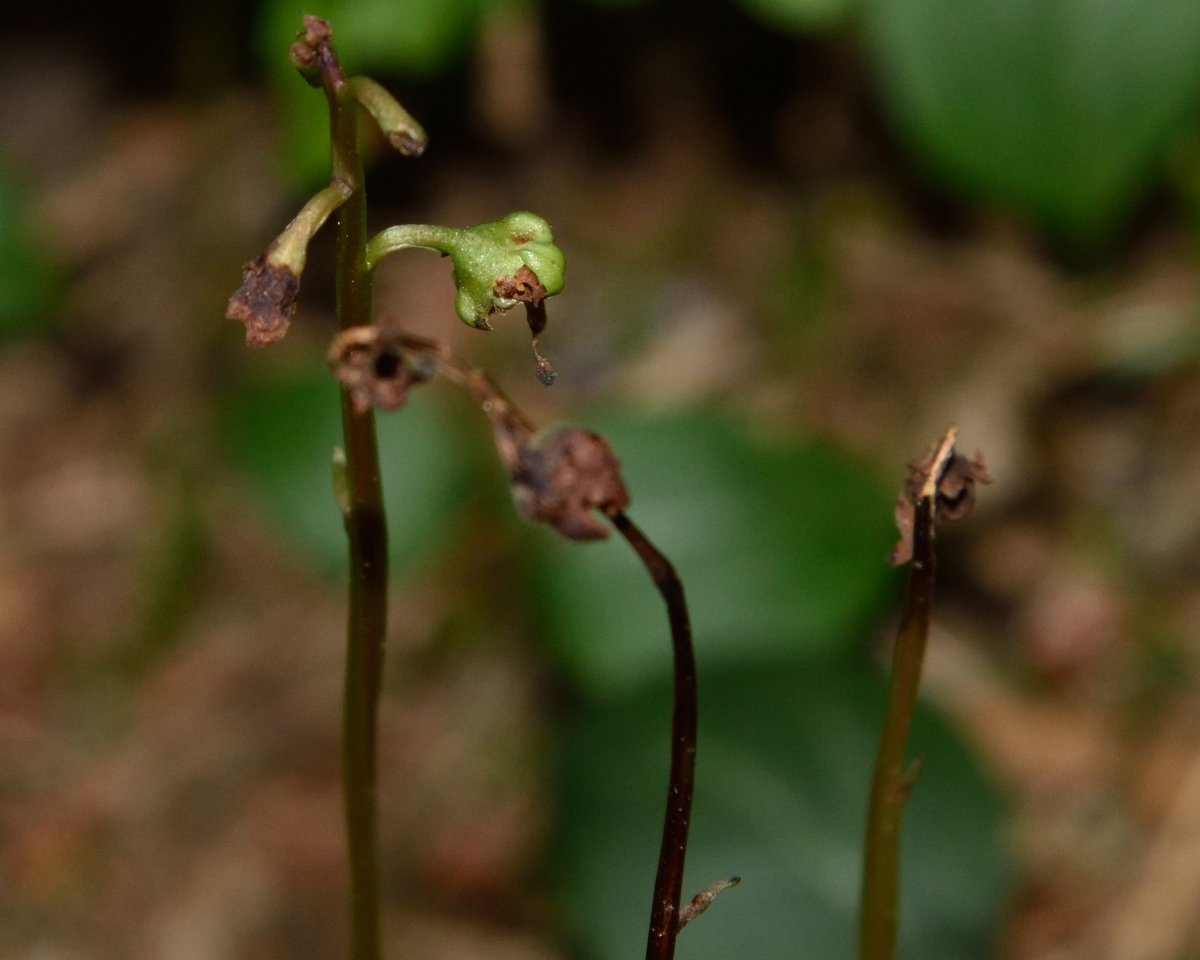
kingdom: Plantae
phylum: Tracheophyta
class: Magnoliopsida
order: Ericales
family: Ericaceae
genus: Pyrola
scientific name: Pyrola chlorantha
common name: Green wintergreen
